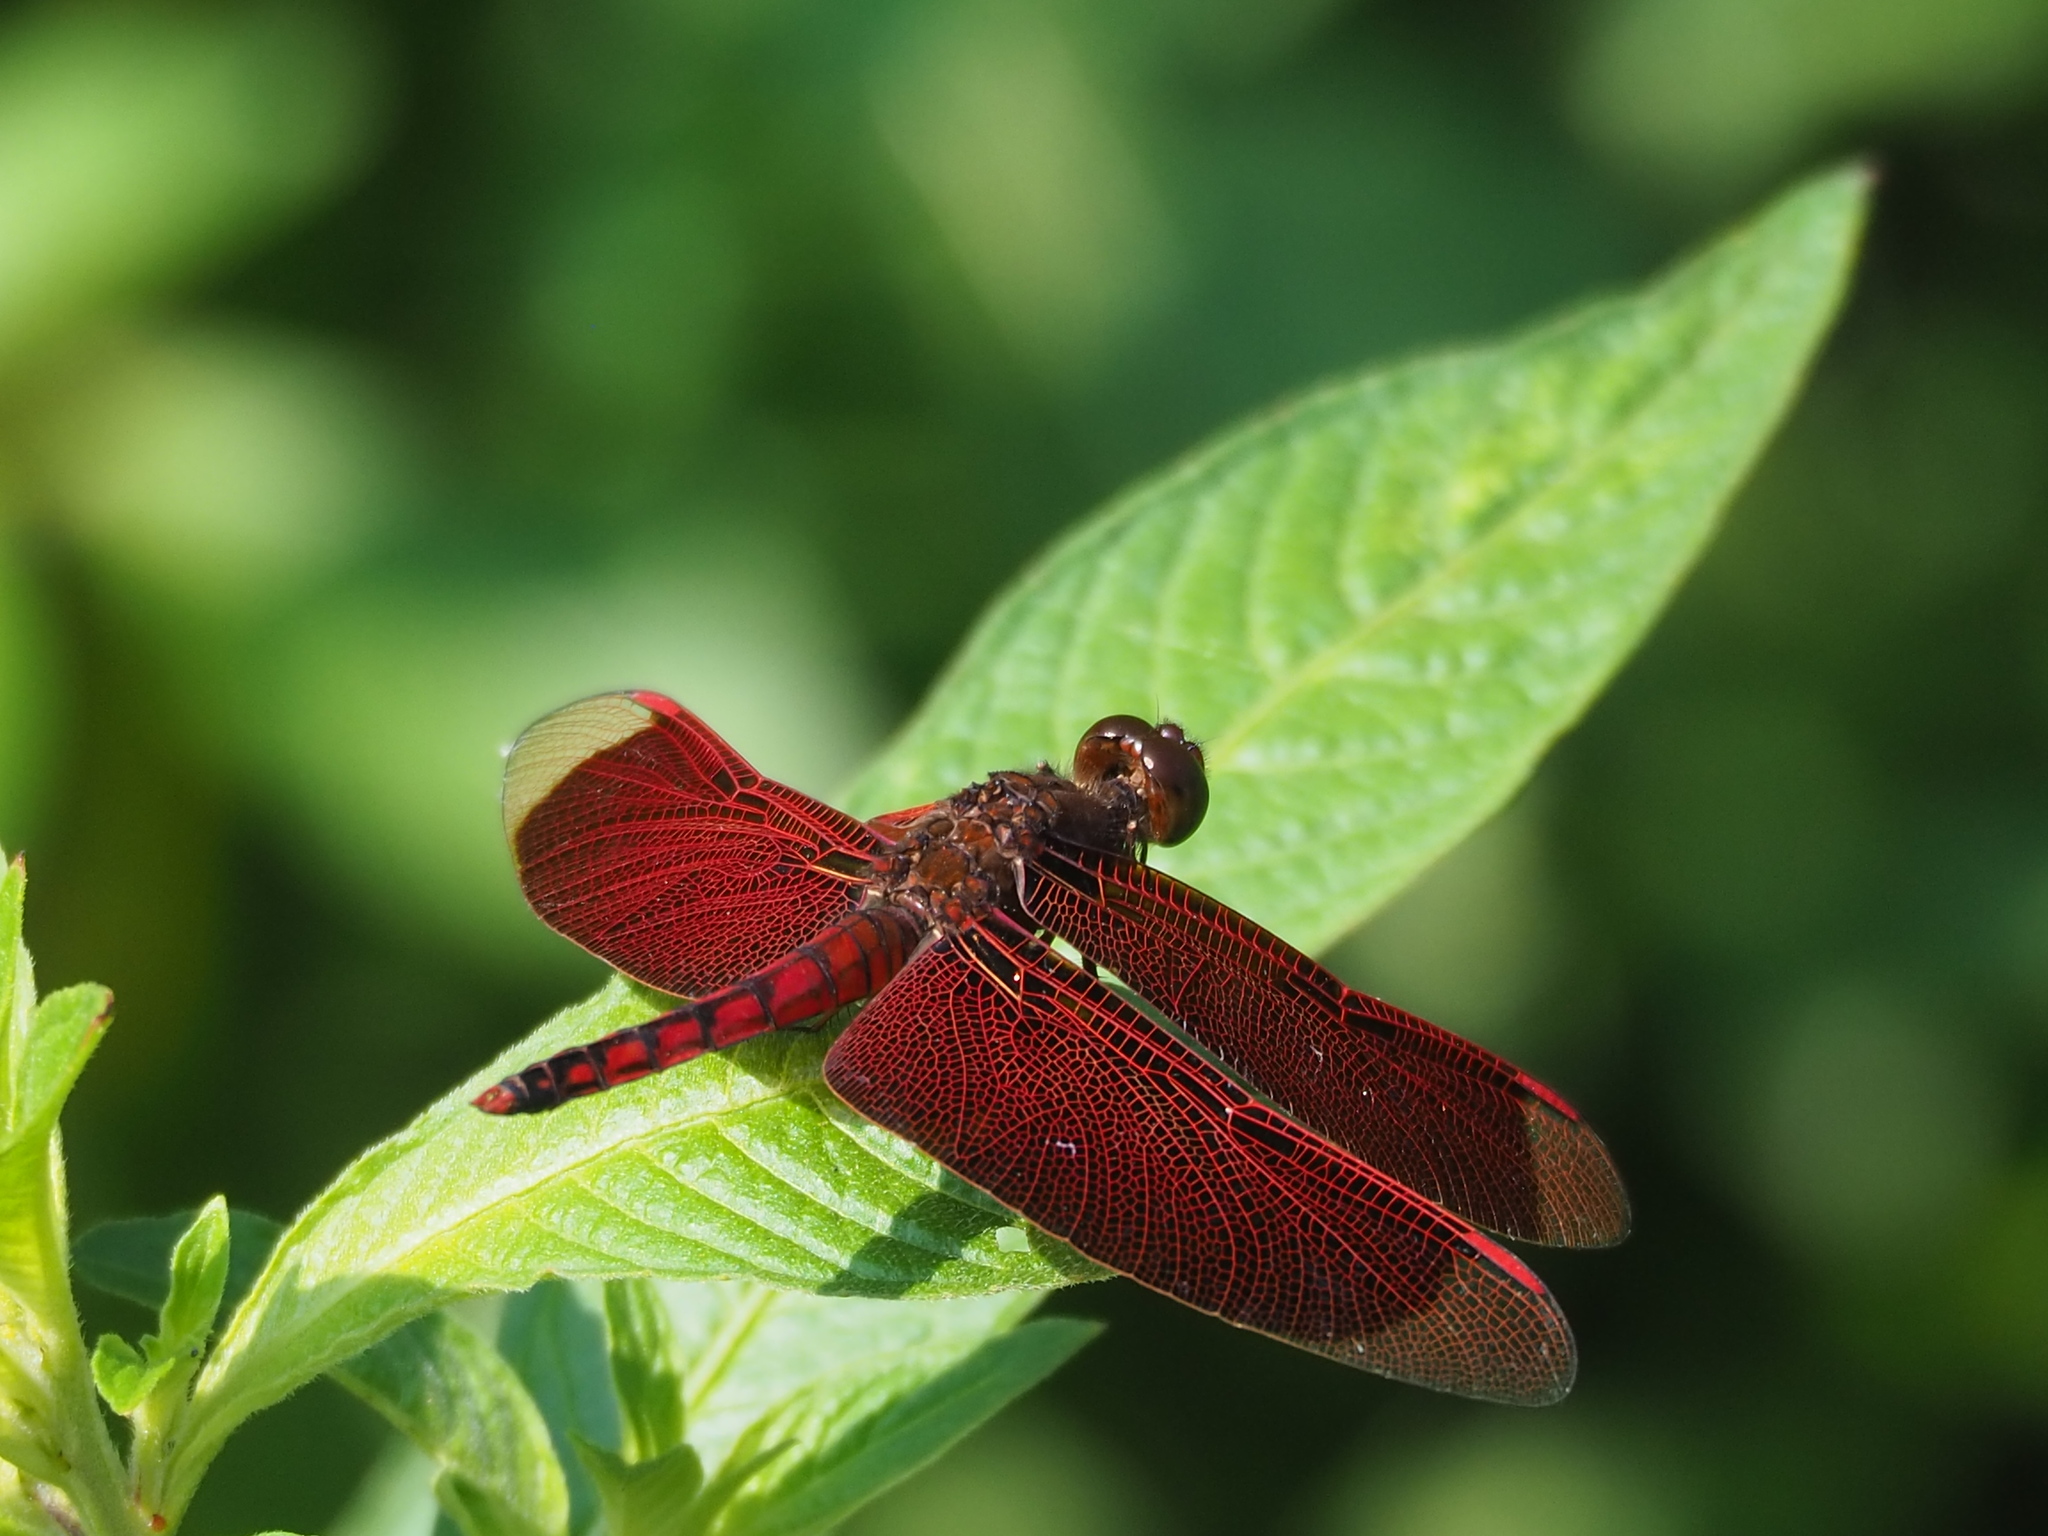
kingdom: Animalia
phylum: Arthropoda
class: Insecta
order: Odonata
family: Libellulidae
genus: Neurothemis
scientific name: Neurothemis taiwanensis
